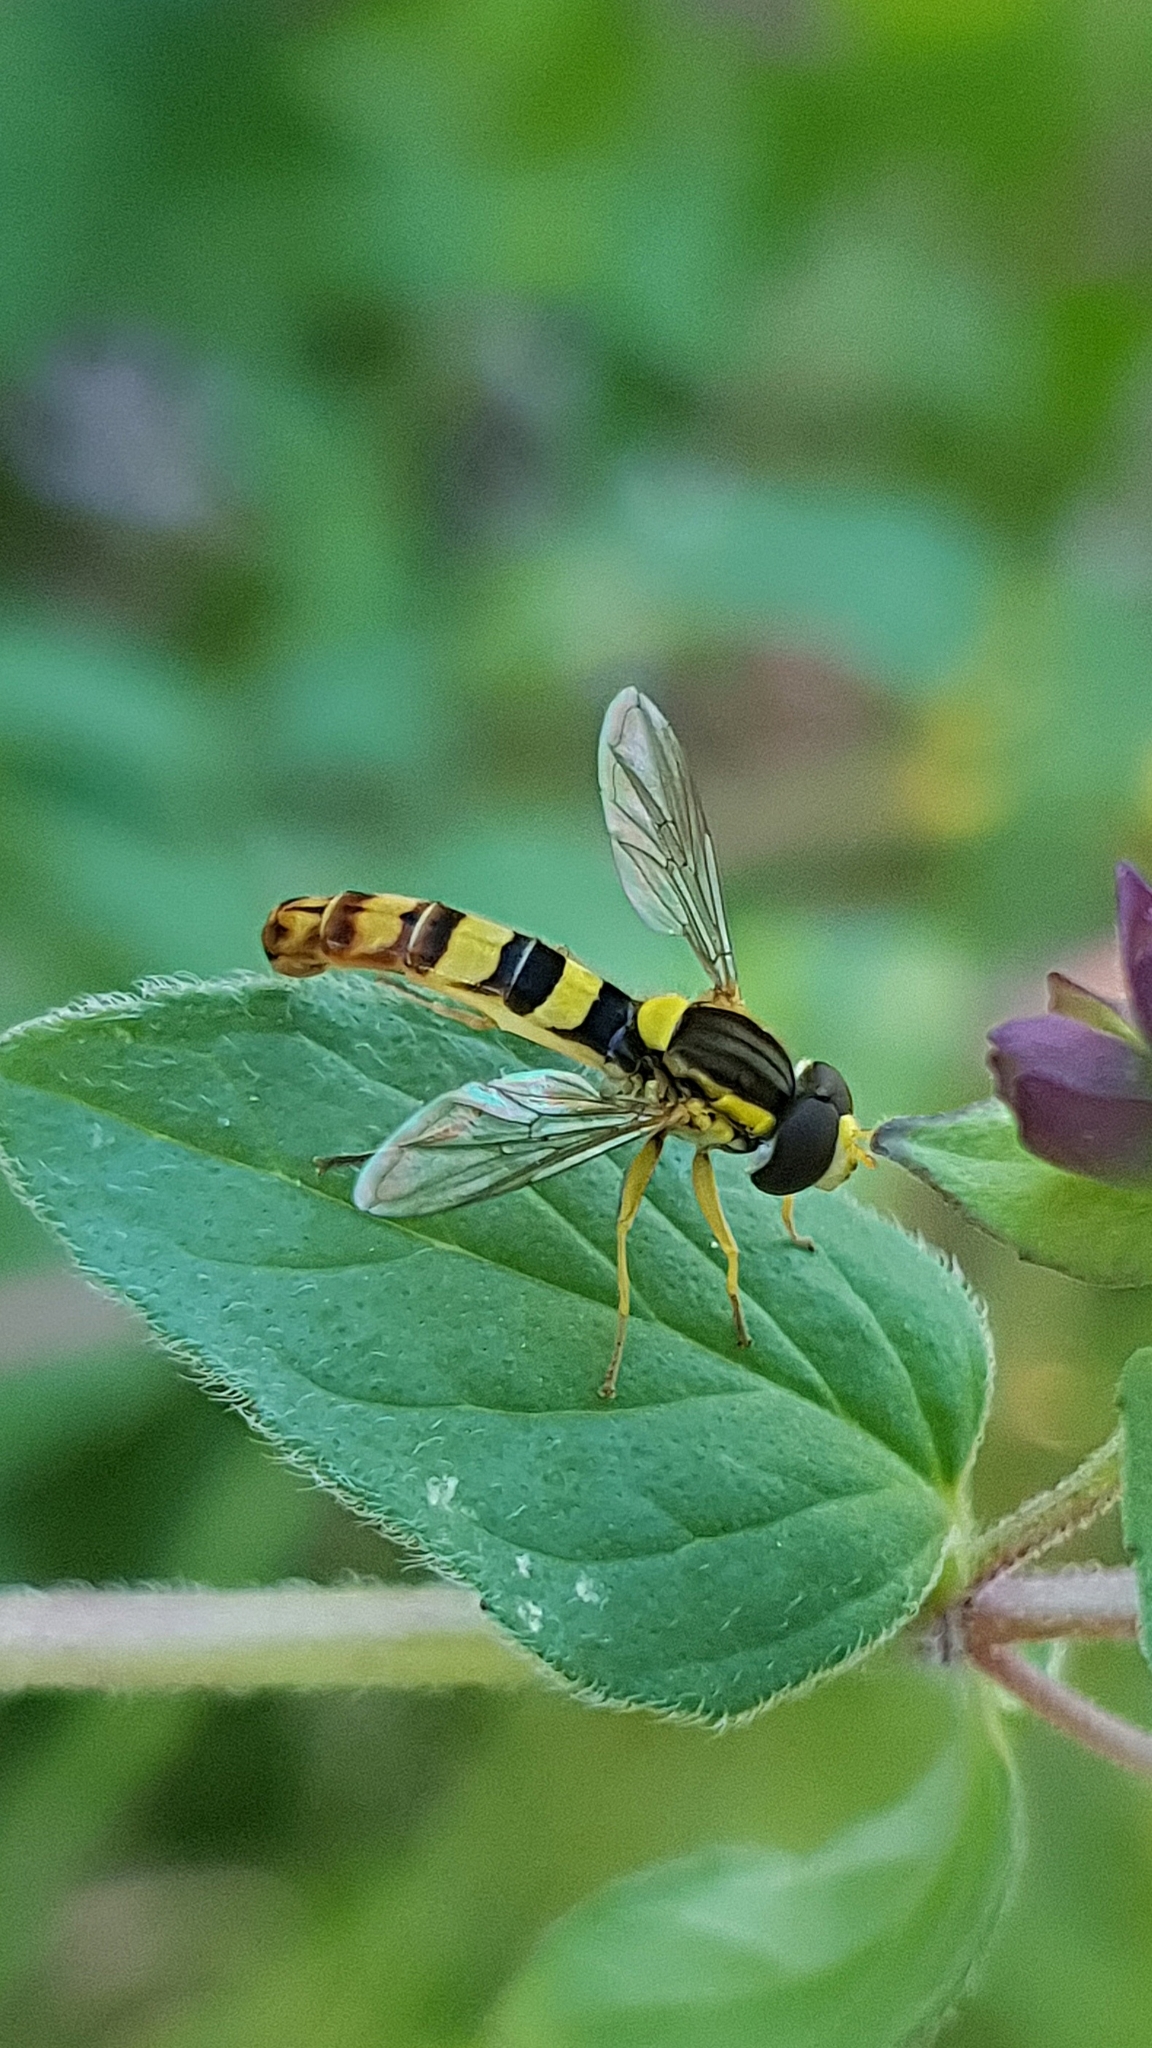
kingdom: Animalia
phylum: Arthropoda
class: Insecta
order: Diptera
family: Syrphidae
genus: Sphaerophoria
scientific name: Sphaerophoria scripta
